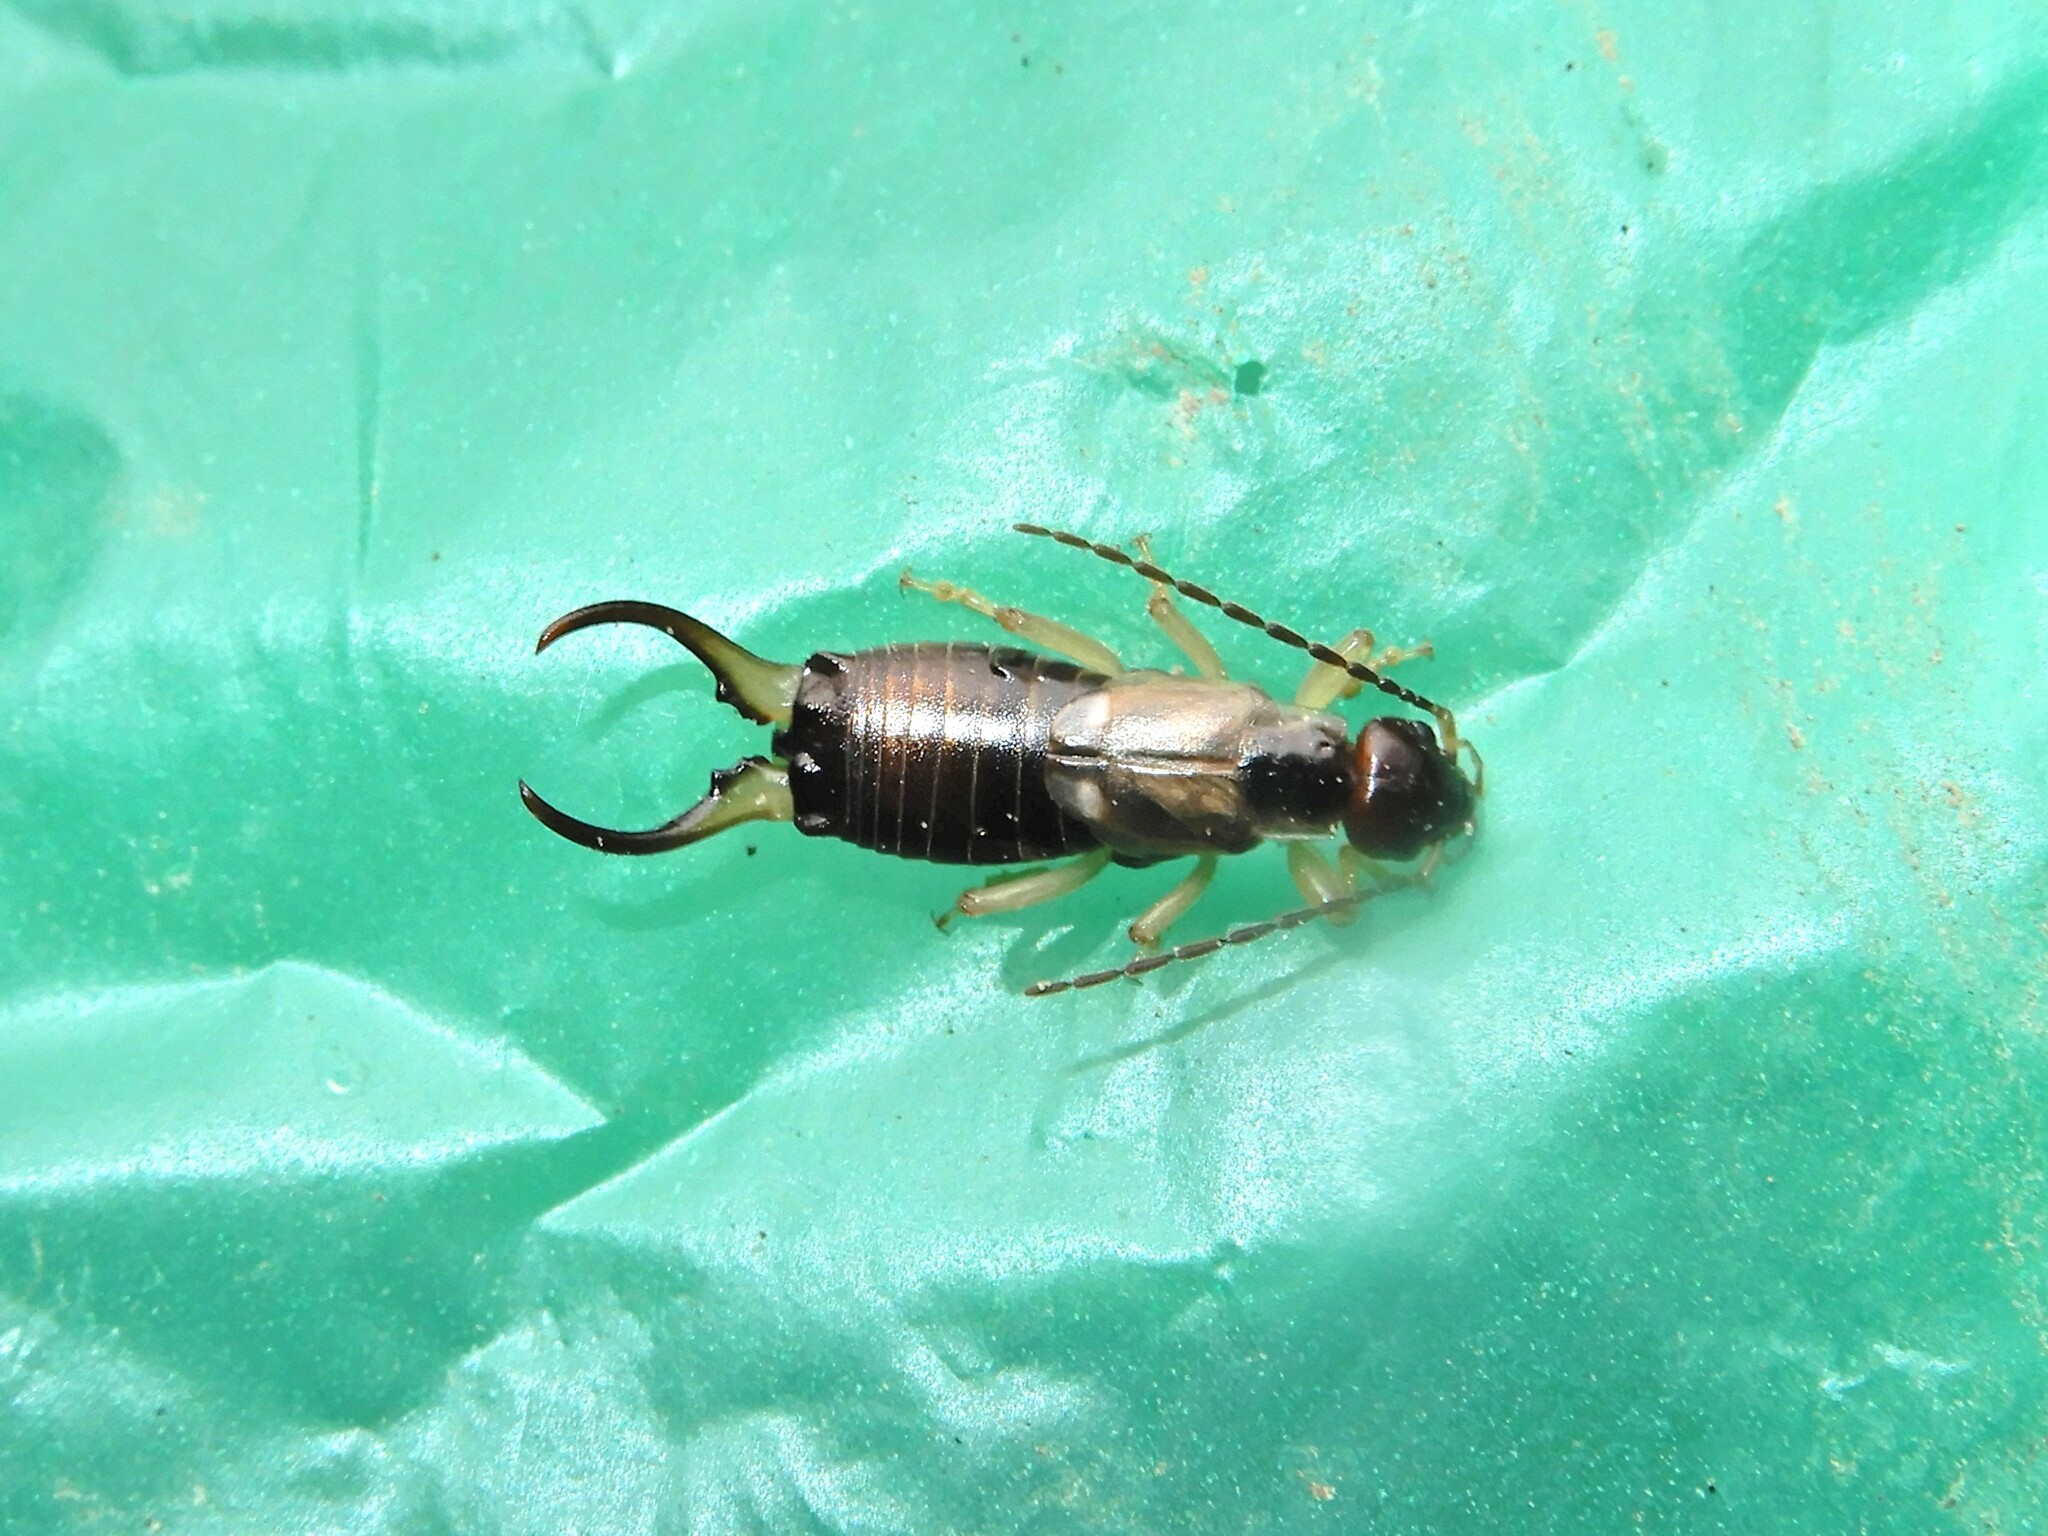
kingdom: Animalia
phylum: Arthropoda
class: Insecta
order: Dermaptera
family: Forficulidae
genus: Forficula
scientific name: Forficula dentata
